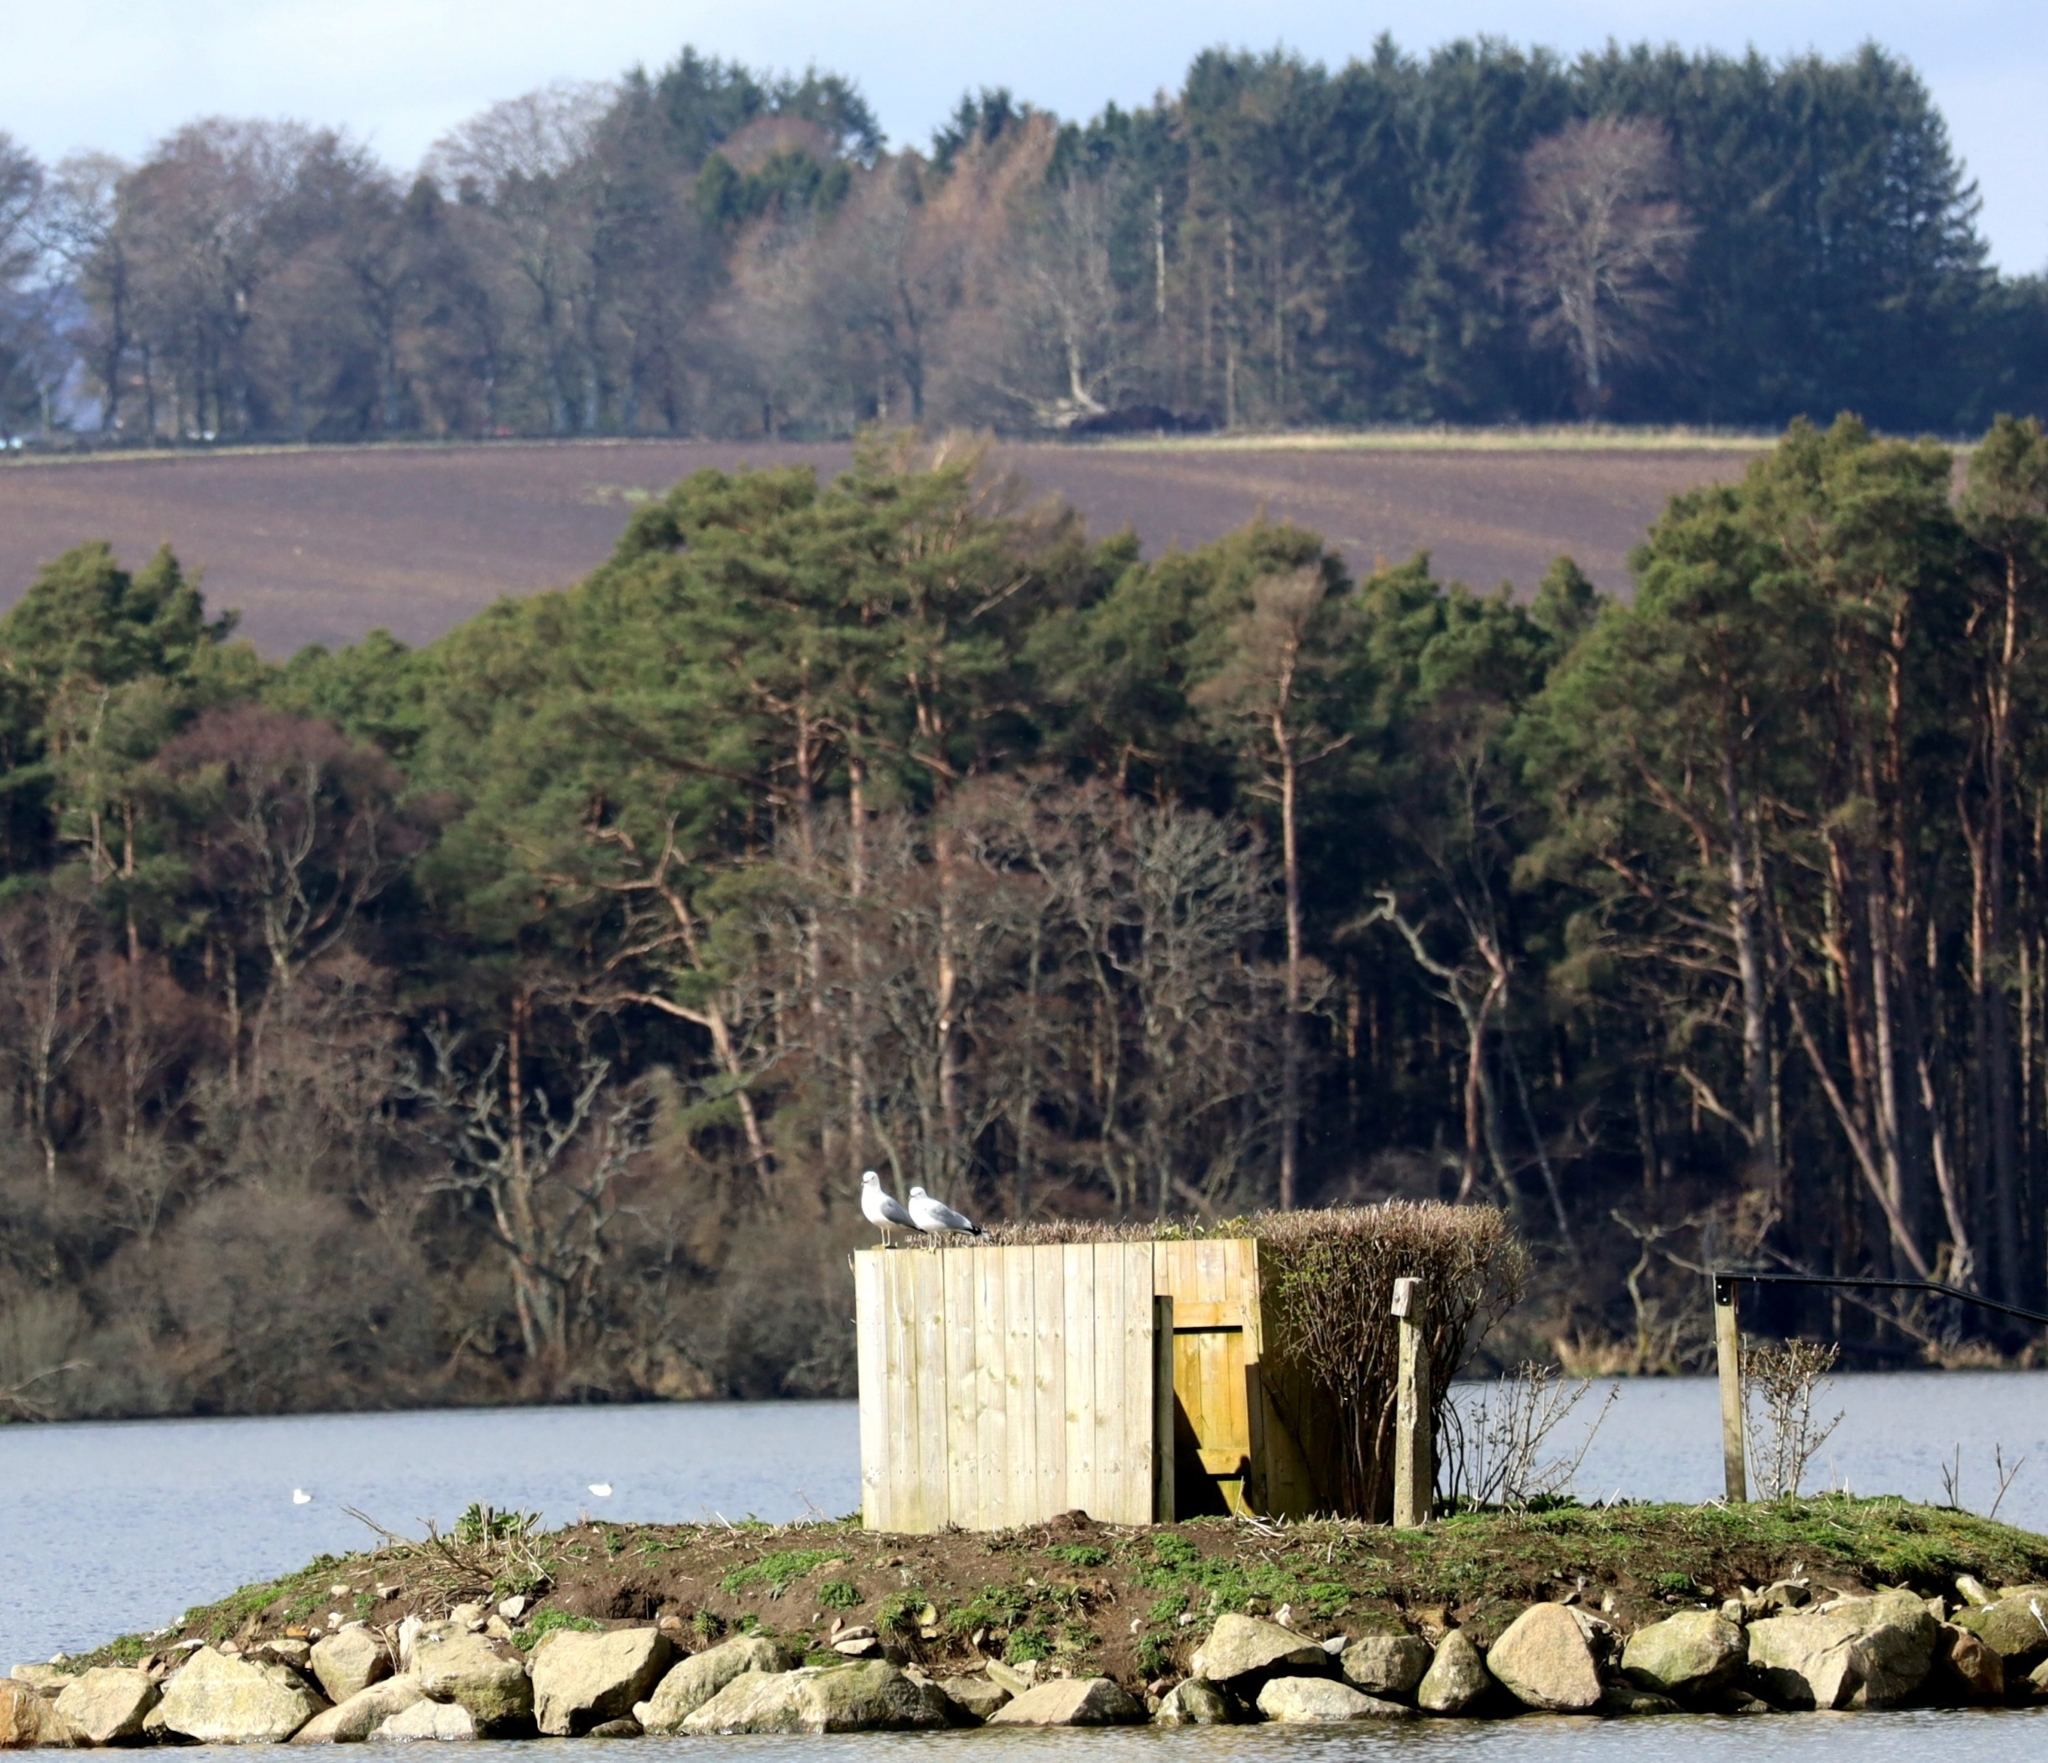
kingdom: Animalia
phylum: Chordata
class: Aves
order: Charadriiformes
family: Laridae
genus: Larus
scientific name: Larus canus
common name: Mew gull
